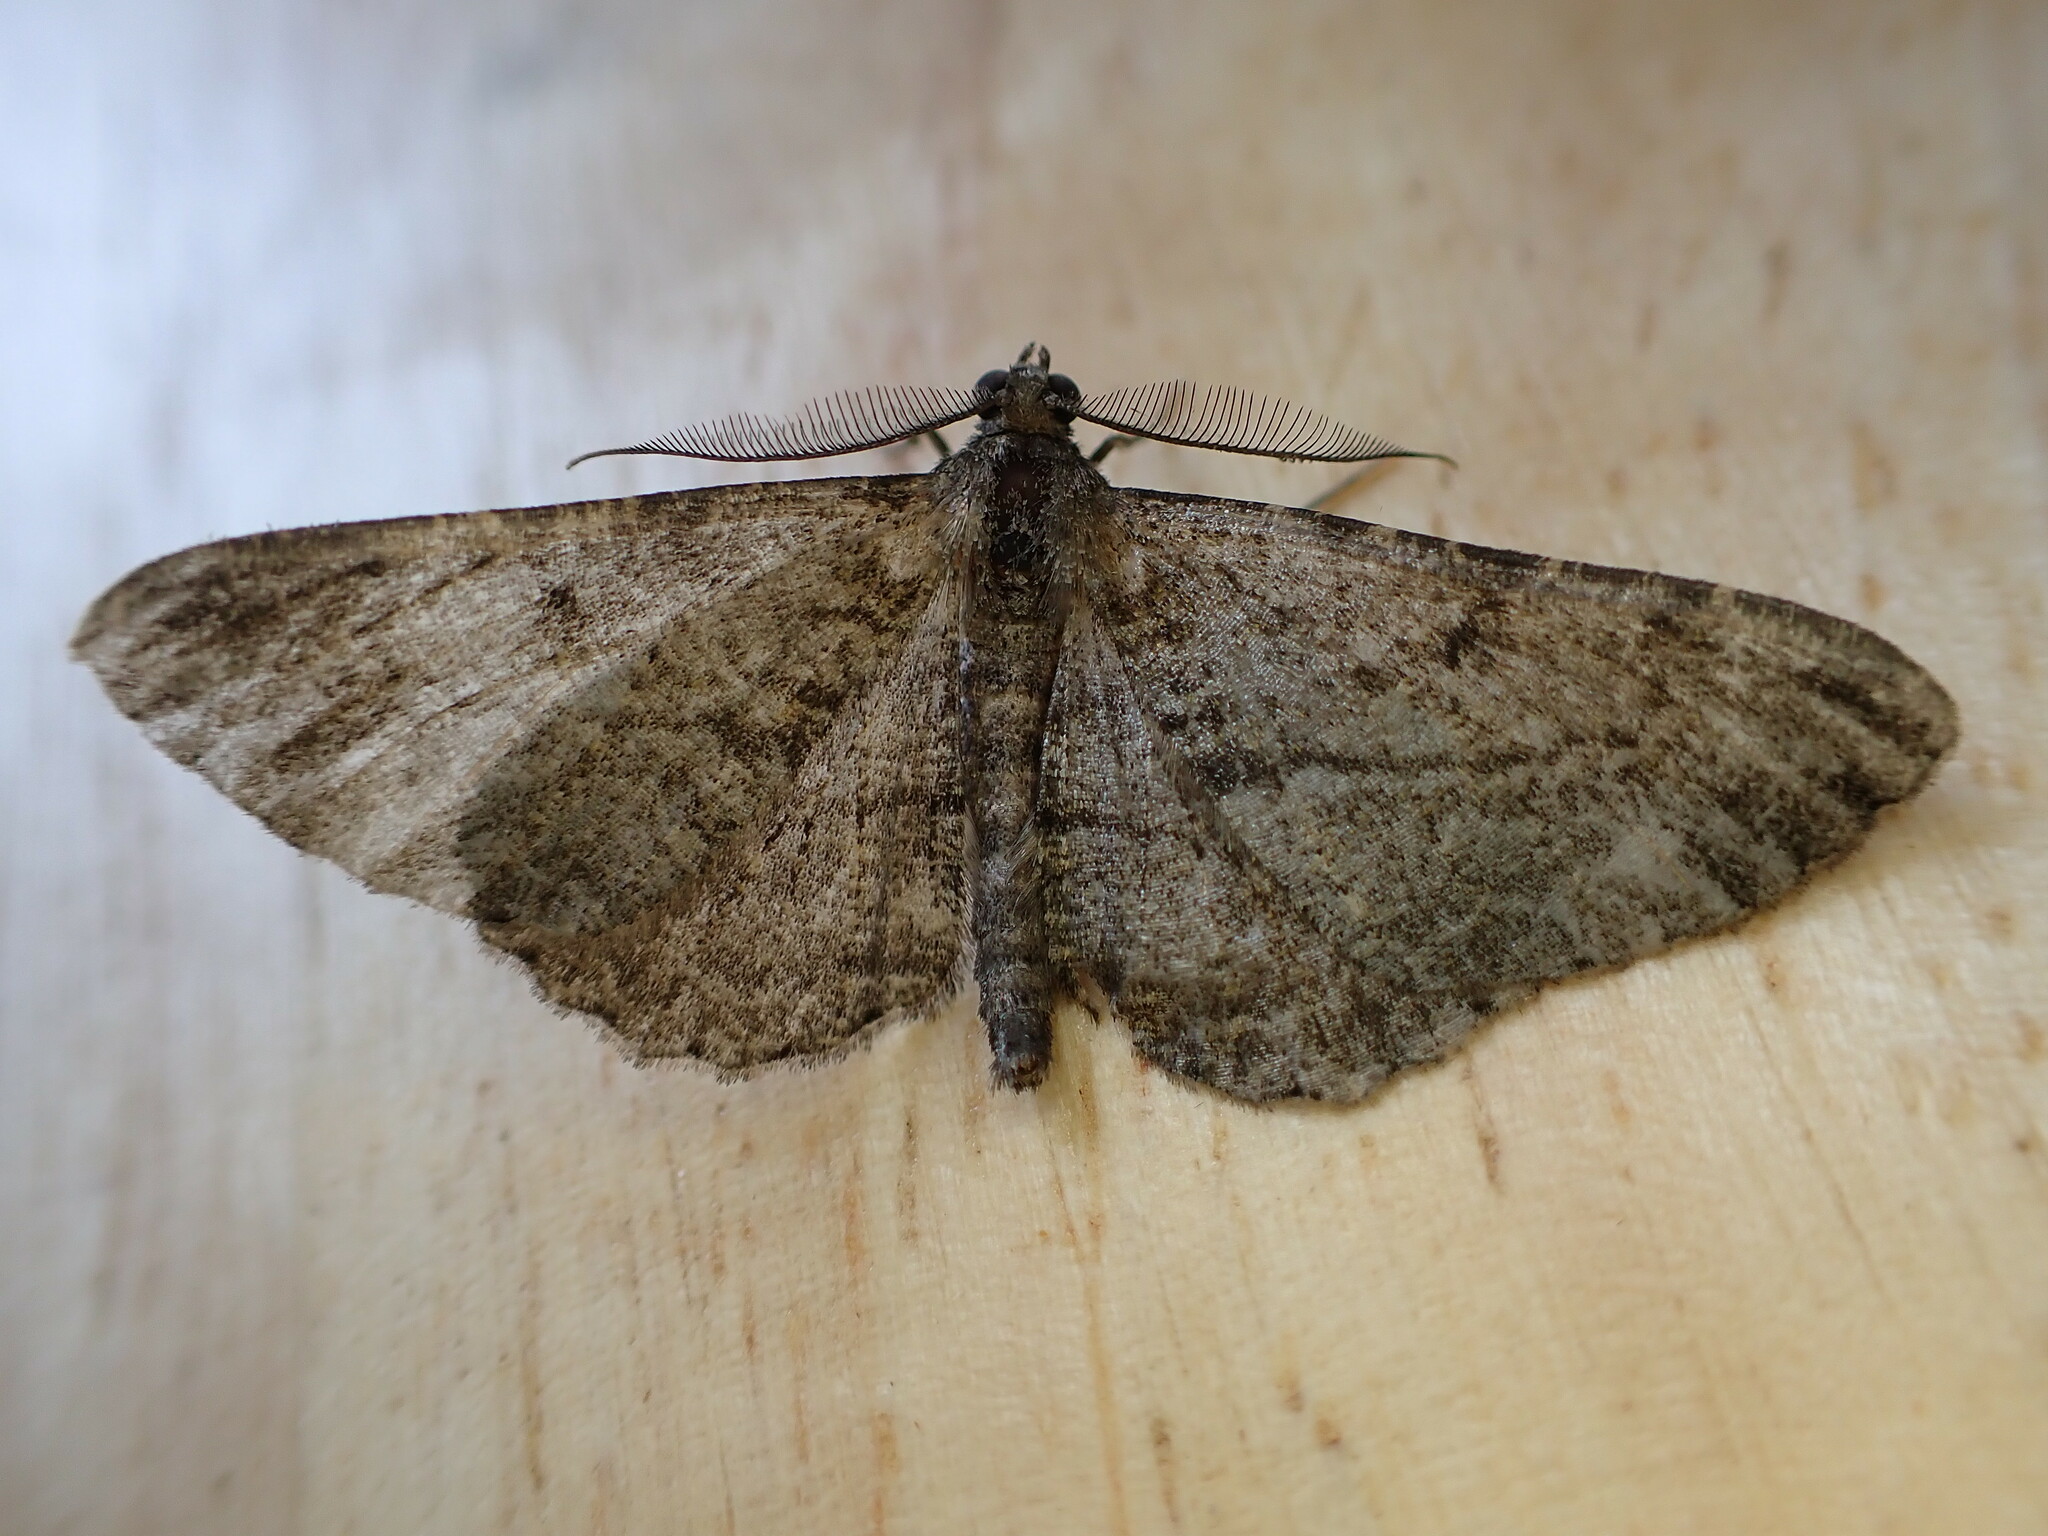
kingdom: Animalia
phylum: Arthropoda
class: Insecta
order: Lepidoptera
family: Geometridae
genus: Peribatodes
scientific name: Peribatodes rhomboidaria
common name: Willow beauty
